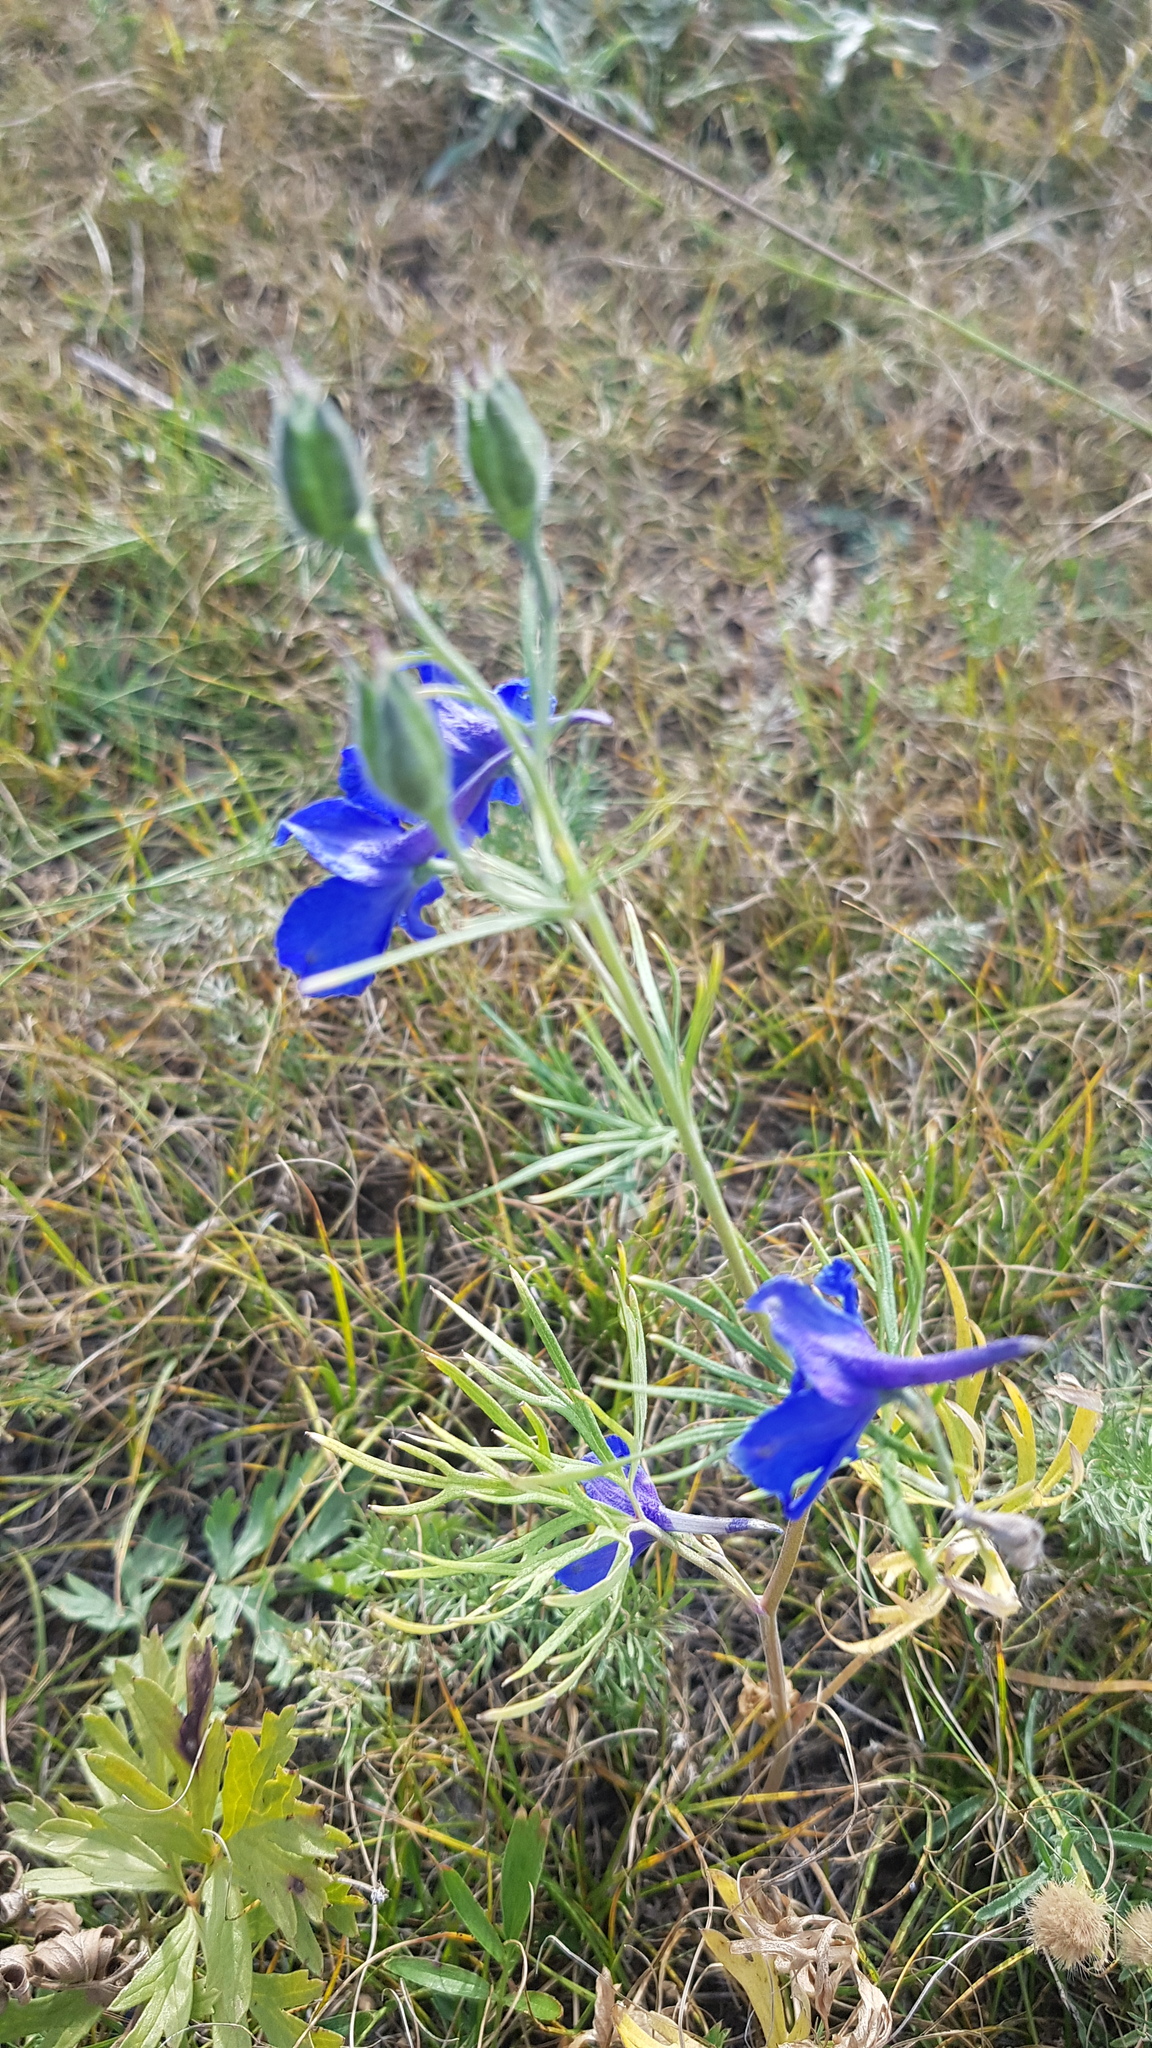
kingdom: Plantae
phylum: Tracheophyta
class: Magnoliopsida
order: Ranunculales
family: Ranunculaceae
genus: Delphinium
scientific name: Delphinium grandiflorum
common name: Siberian larkspur
